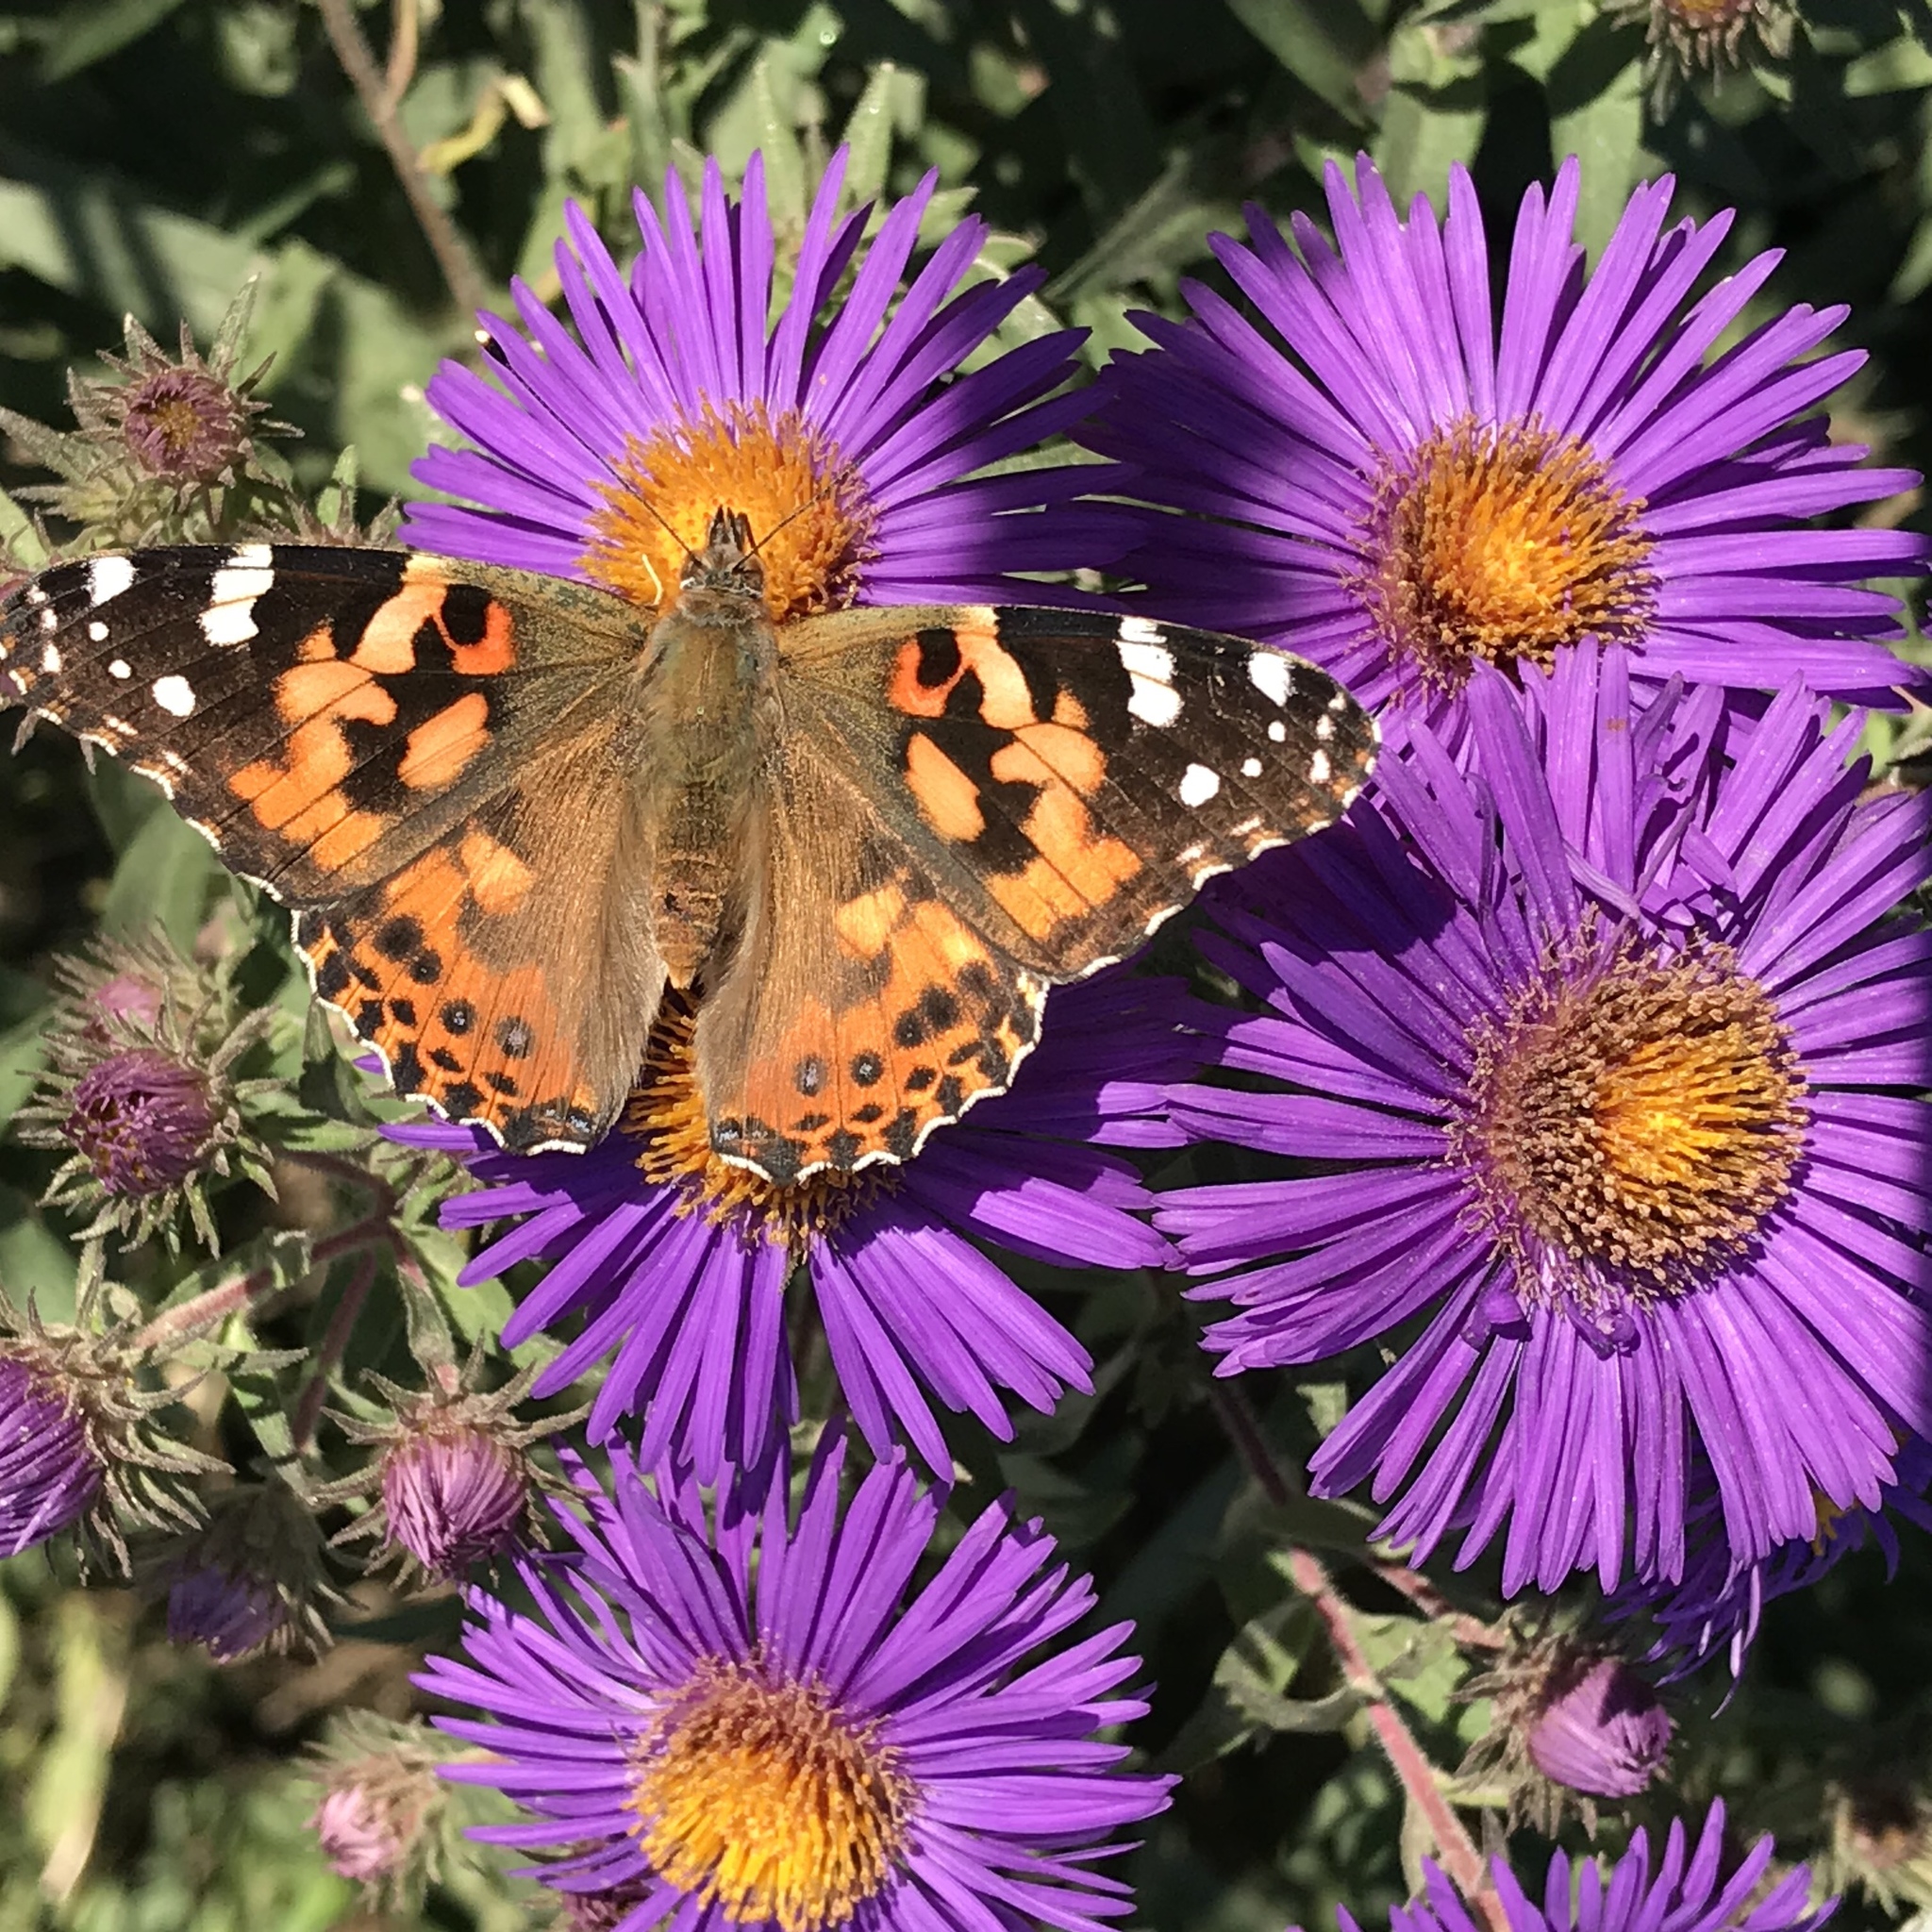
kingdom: Animalia
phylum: Arthropoda
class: Insecta
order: Lepidoptera
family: Nymphalidae
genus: Vanessa
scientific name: Vanessa cardui
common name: Painted lady
